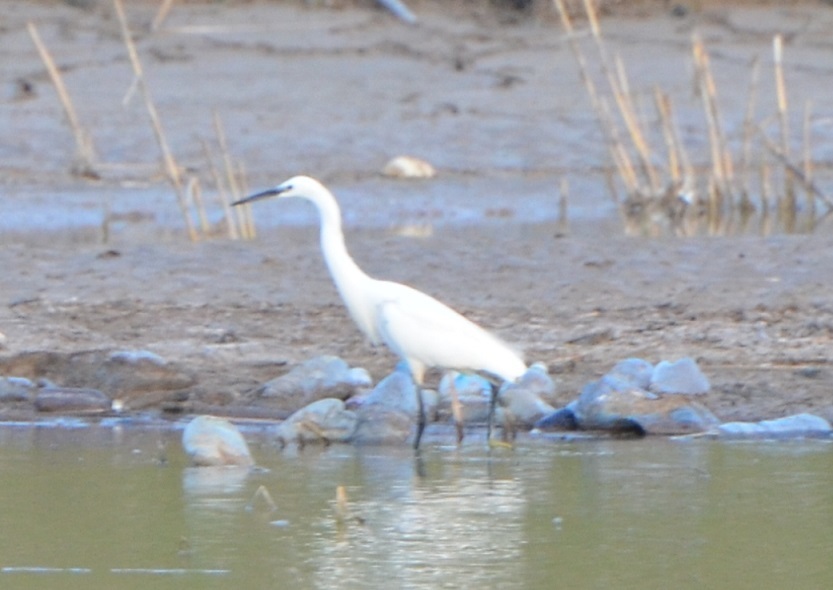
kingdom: Animalia
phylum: Chordata
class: Aves
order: Pelecaniformes
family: Ardeidae
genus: Egretta
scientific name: Egretta garzetta
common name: Little egret
